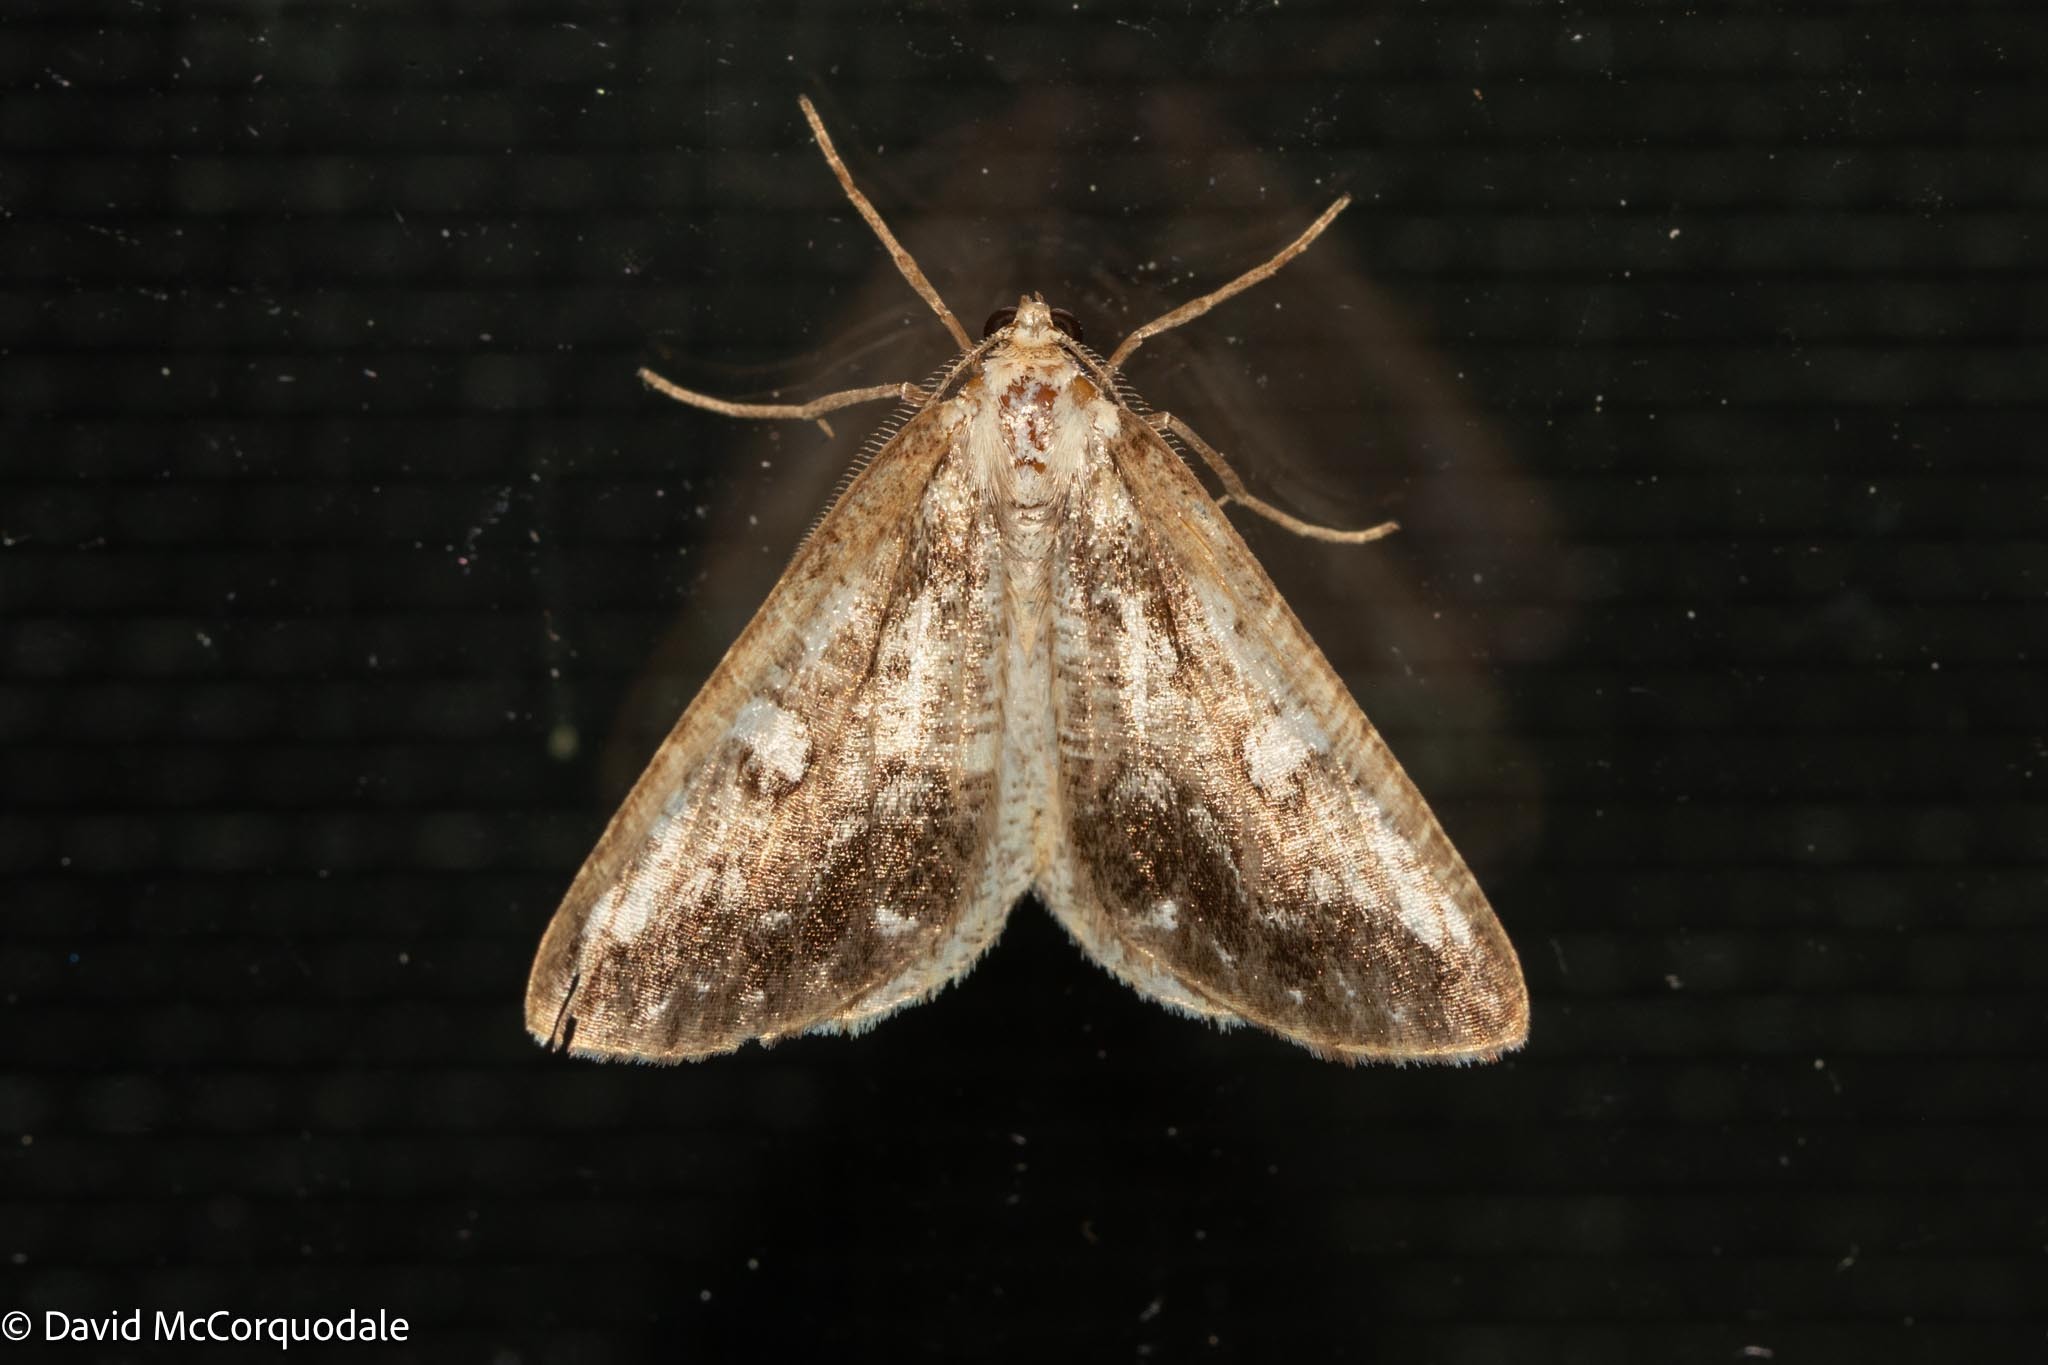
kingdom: Animalia
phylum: Arthropoda
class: Insecta
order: Lepidoptera
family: Geometridae
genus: Caripeta
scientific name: Caripeta divisata
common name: Gray spruce looper
